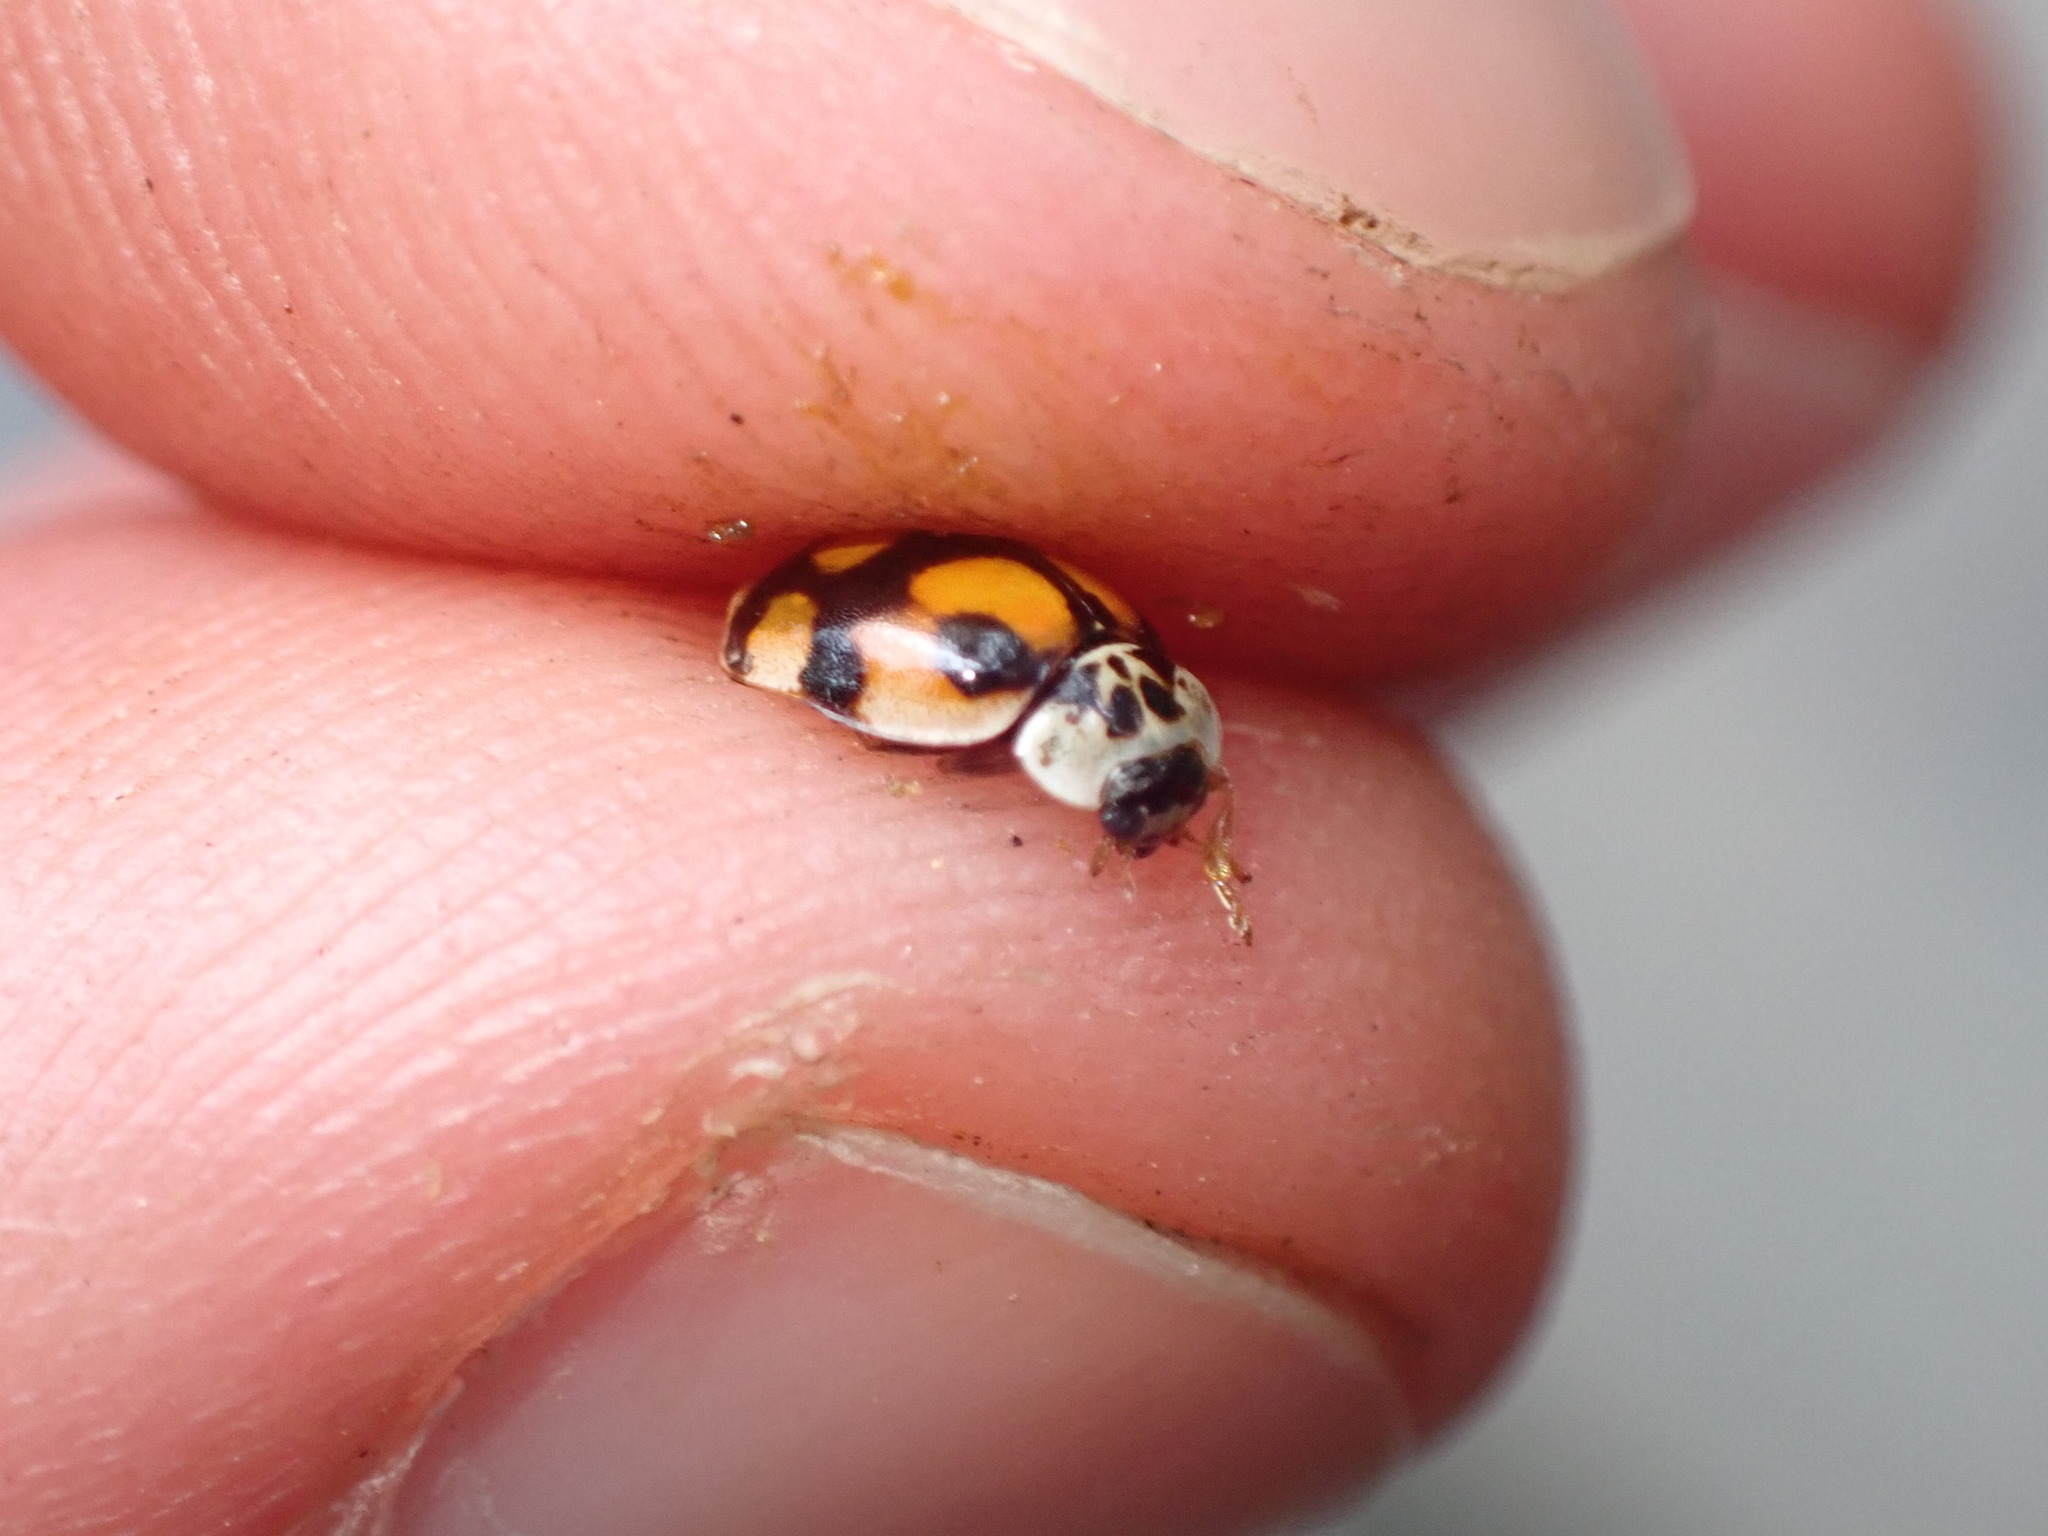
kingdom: Animalia
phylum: Arthropoda
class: Insecta
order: Coleoptera
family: Coccinellidae
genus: Adalia
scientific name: Adalia decempunctata
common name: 10-spot ladybird
